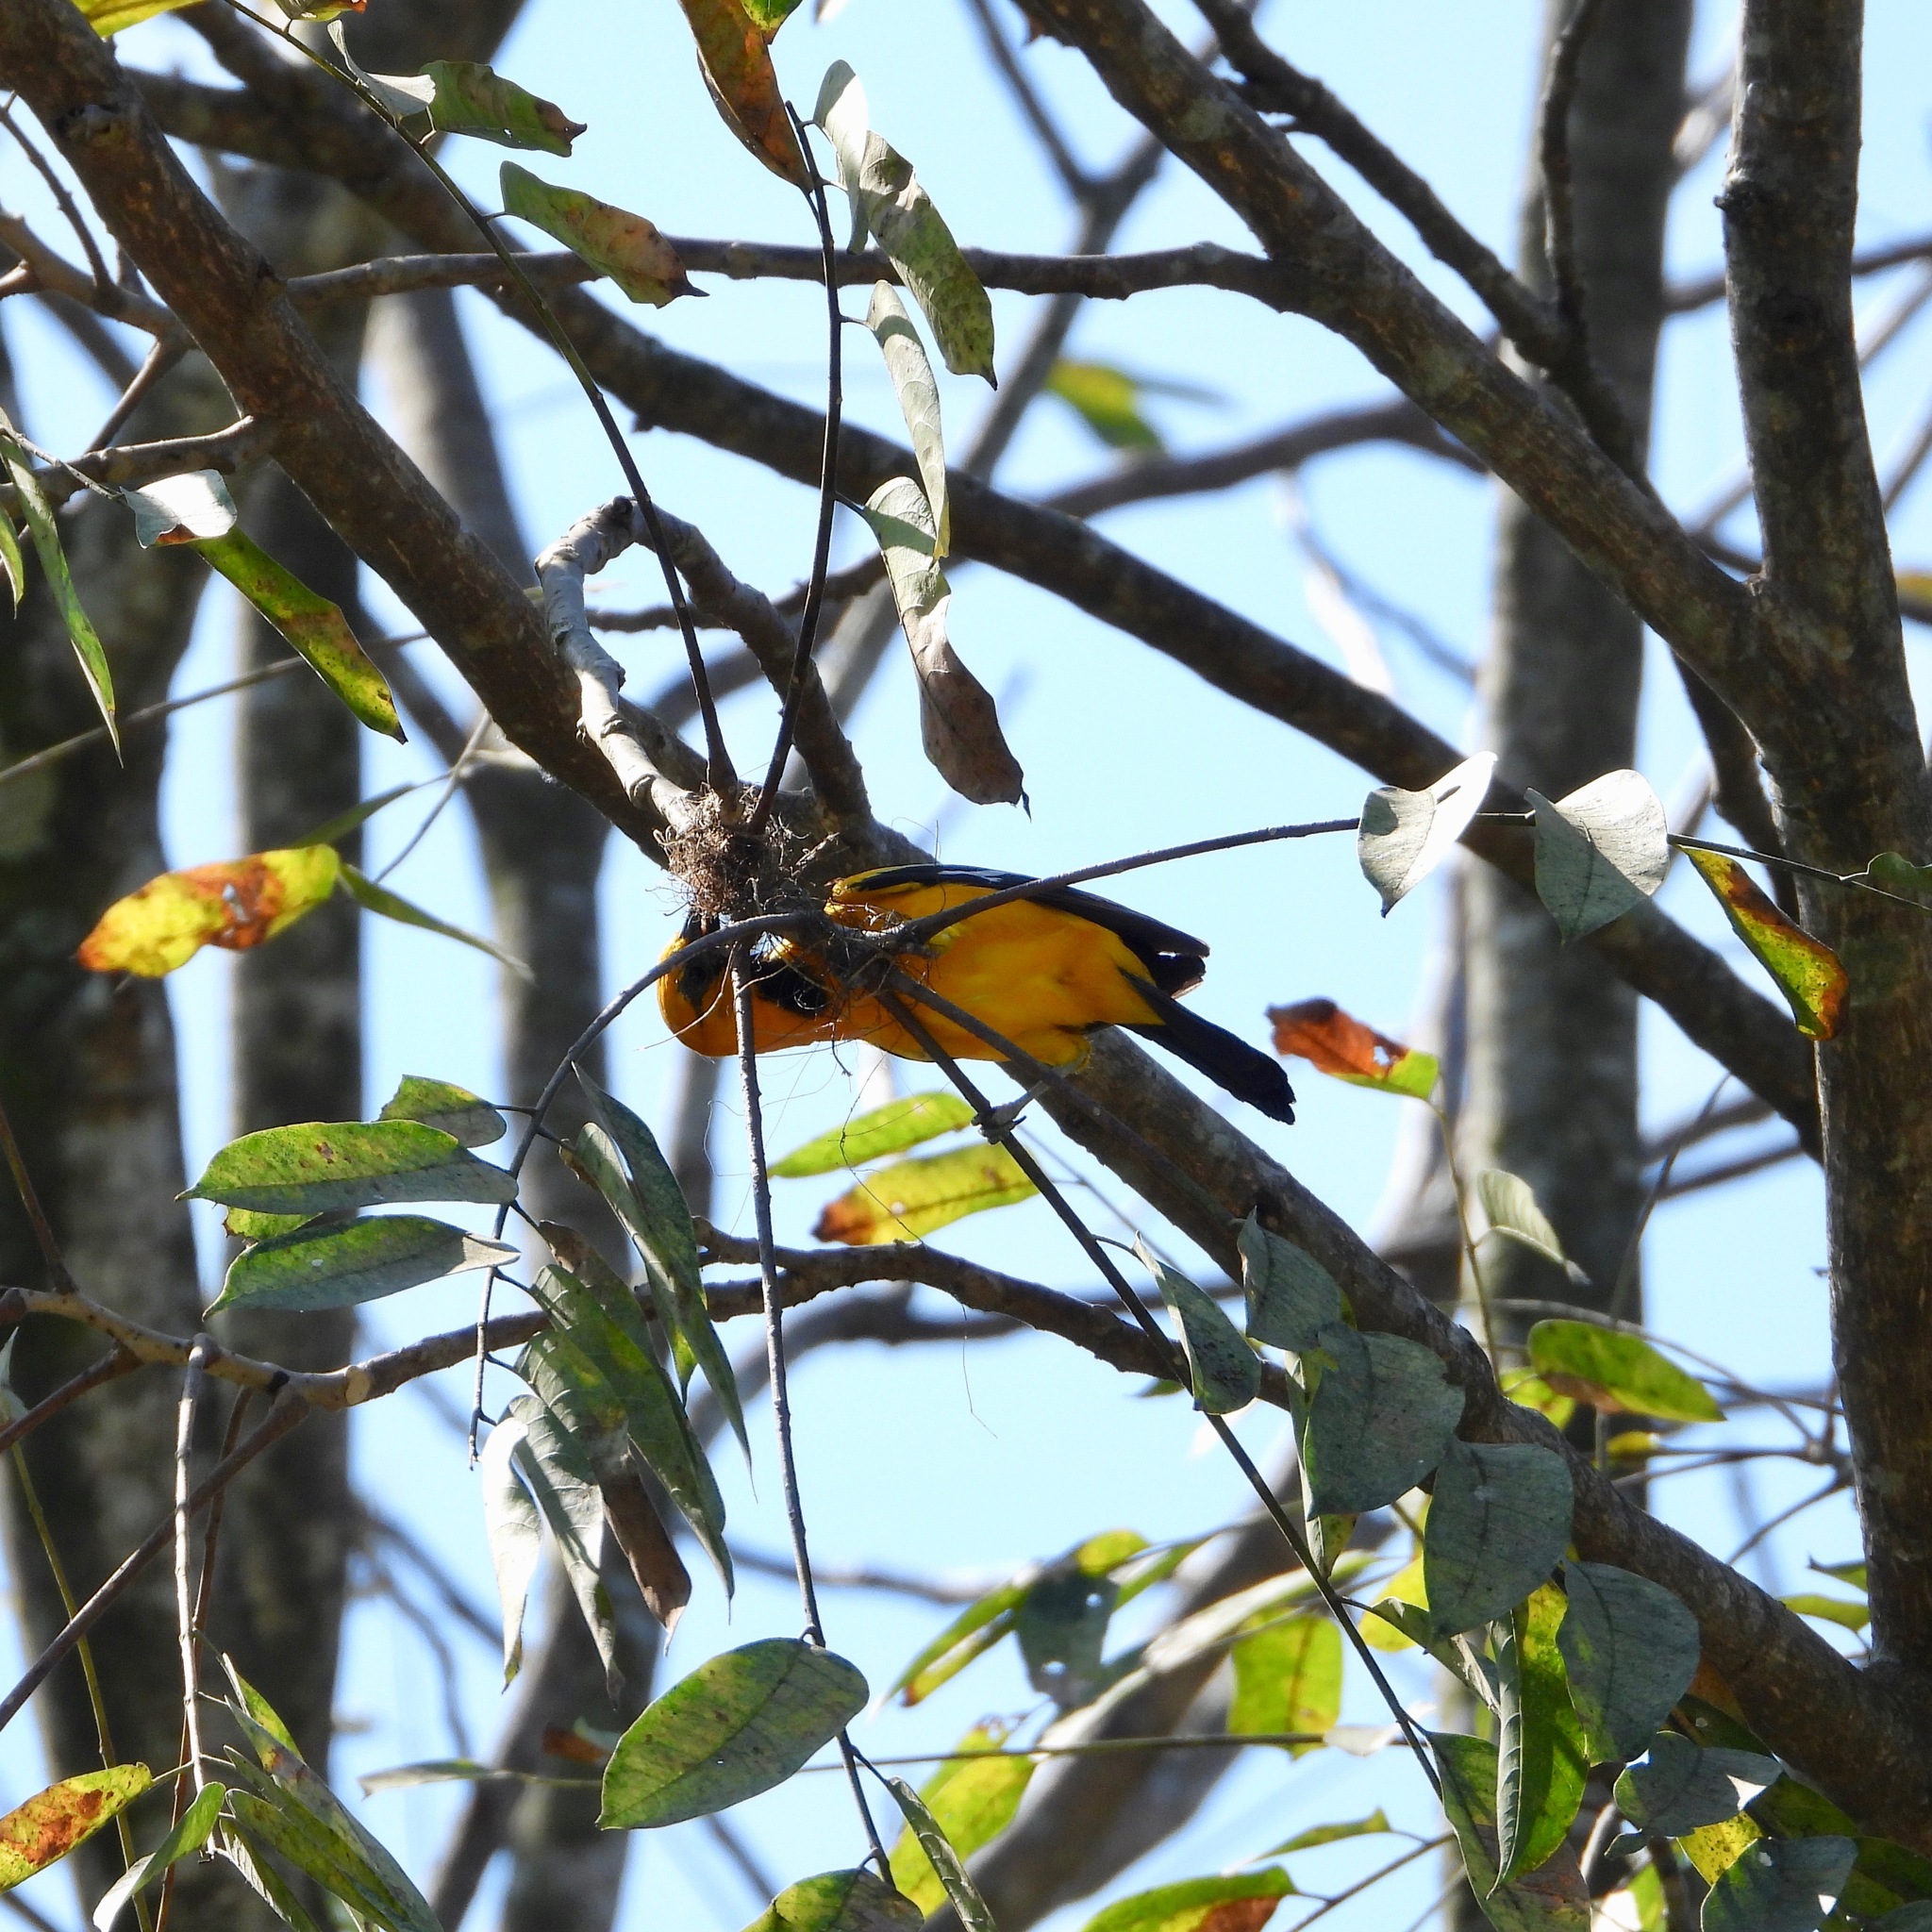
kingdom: Animalia
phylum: Chordata
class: Aves
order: Passeriformes
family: Icteridae
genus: Icterus
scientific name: Icterus gularis
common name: Altamira oriole
